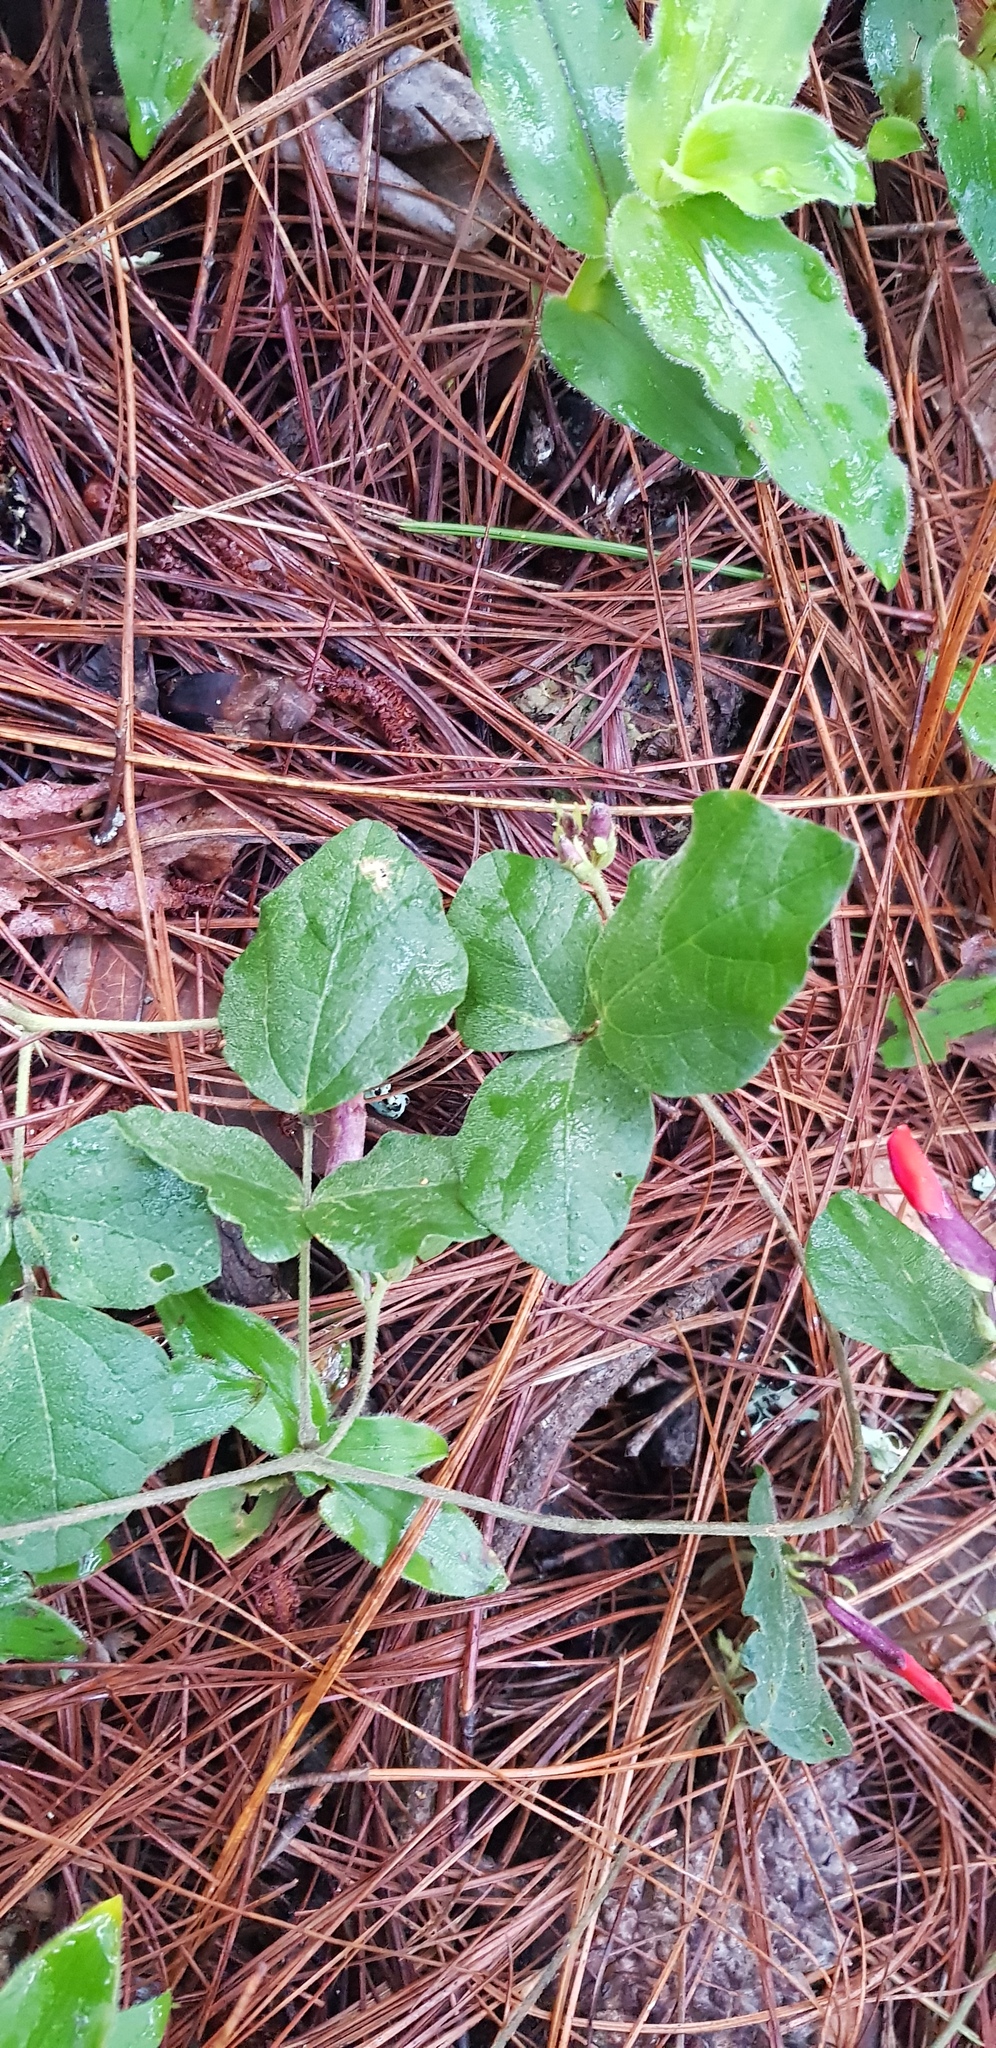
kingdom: Plantae
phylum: Tracheophyta
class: Magnoliopsida
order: Fabales
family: Fabaceae
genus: Phaseolus
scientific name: Phaseolus coccineus
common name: Runner bean
